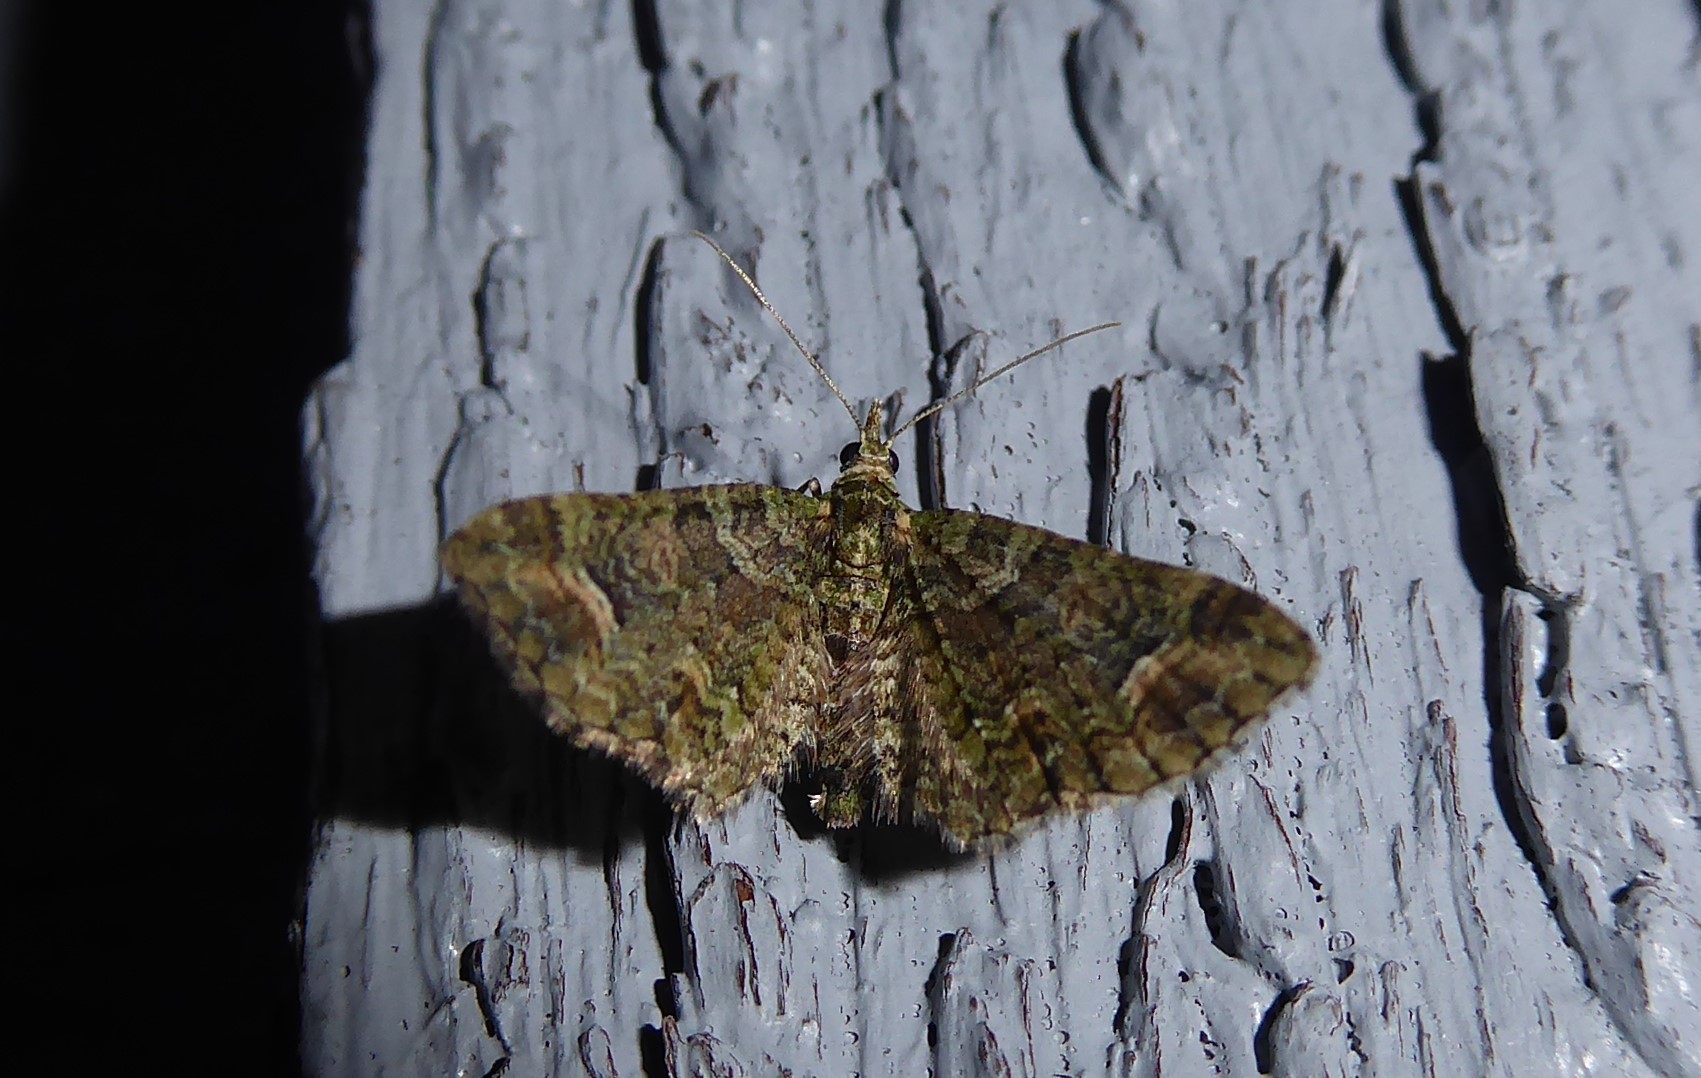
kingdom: Animalia
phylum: Arthropoda
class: Insecta
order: Lepidoptera
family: Geometridae
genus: Idaea
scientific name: Idaea mutanda
